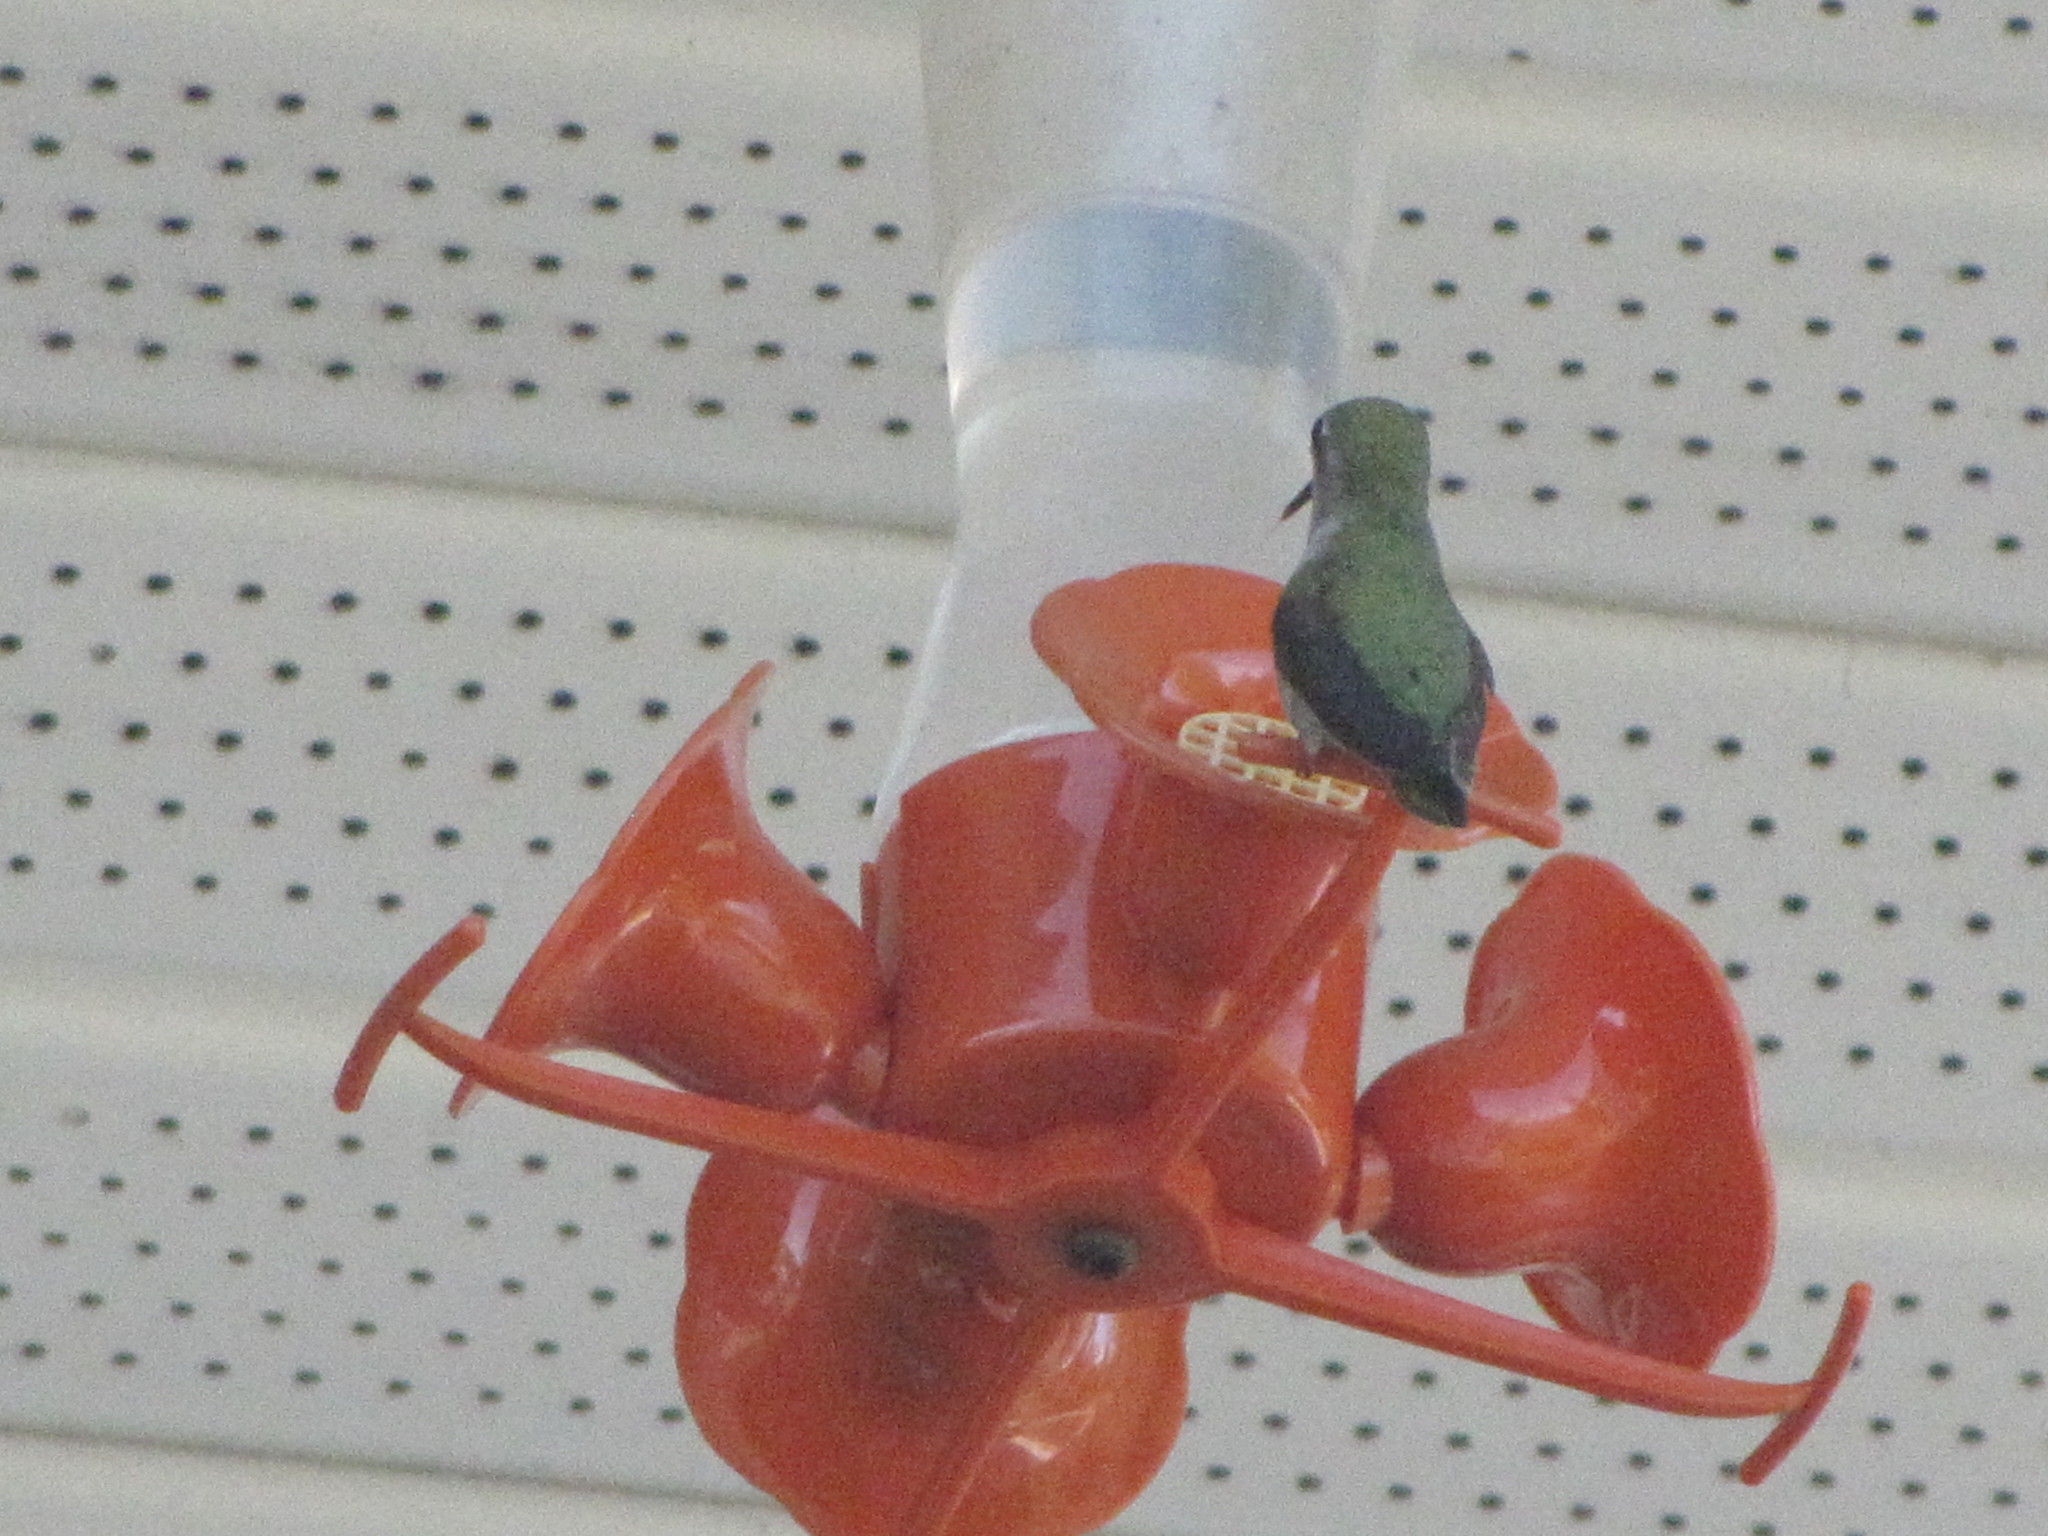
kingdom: Animalia
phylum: Chordata
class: Aves
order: Apodiformes
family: Trochilidae
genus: Calypte
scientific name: Calypte anna
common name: Anna's hummingbird
